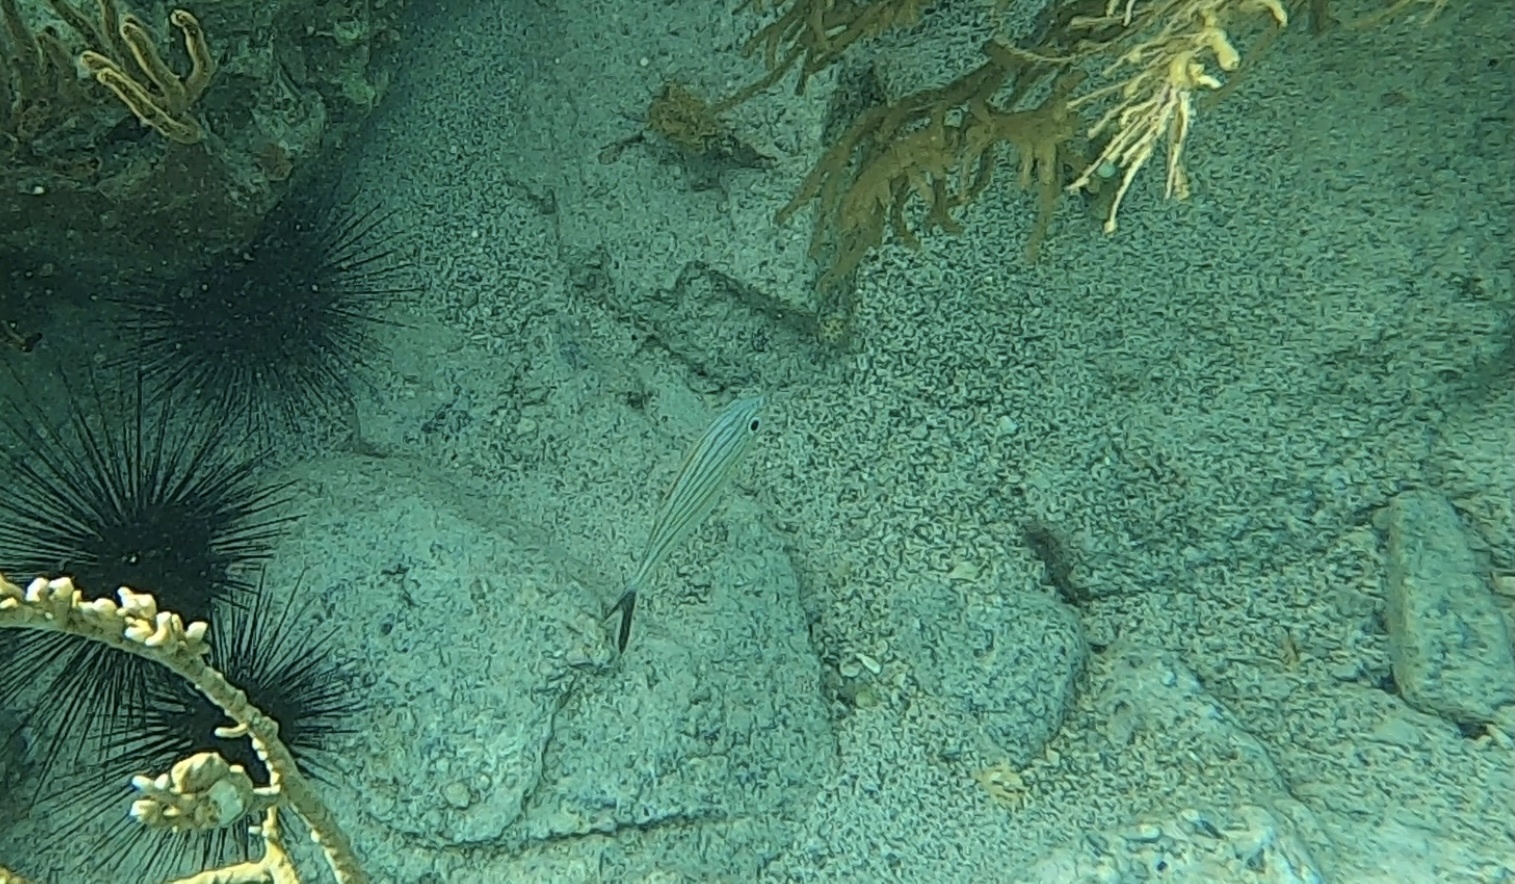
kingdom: Animalia
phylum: Chordata
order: Perciformes
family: Haemulidae
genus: Haemulon
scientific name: Haemulon carbonarium
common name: Caesar grunt
